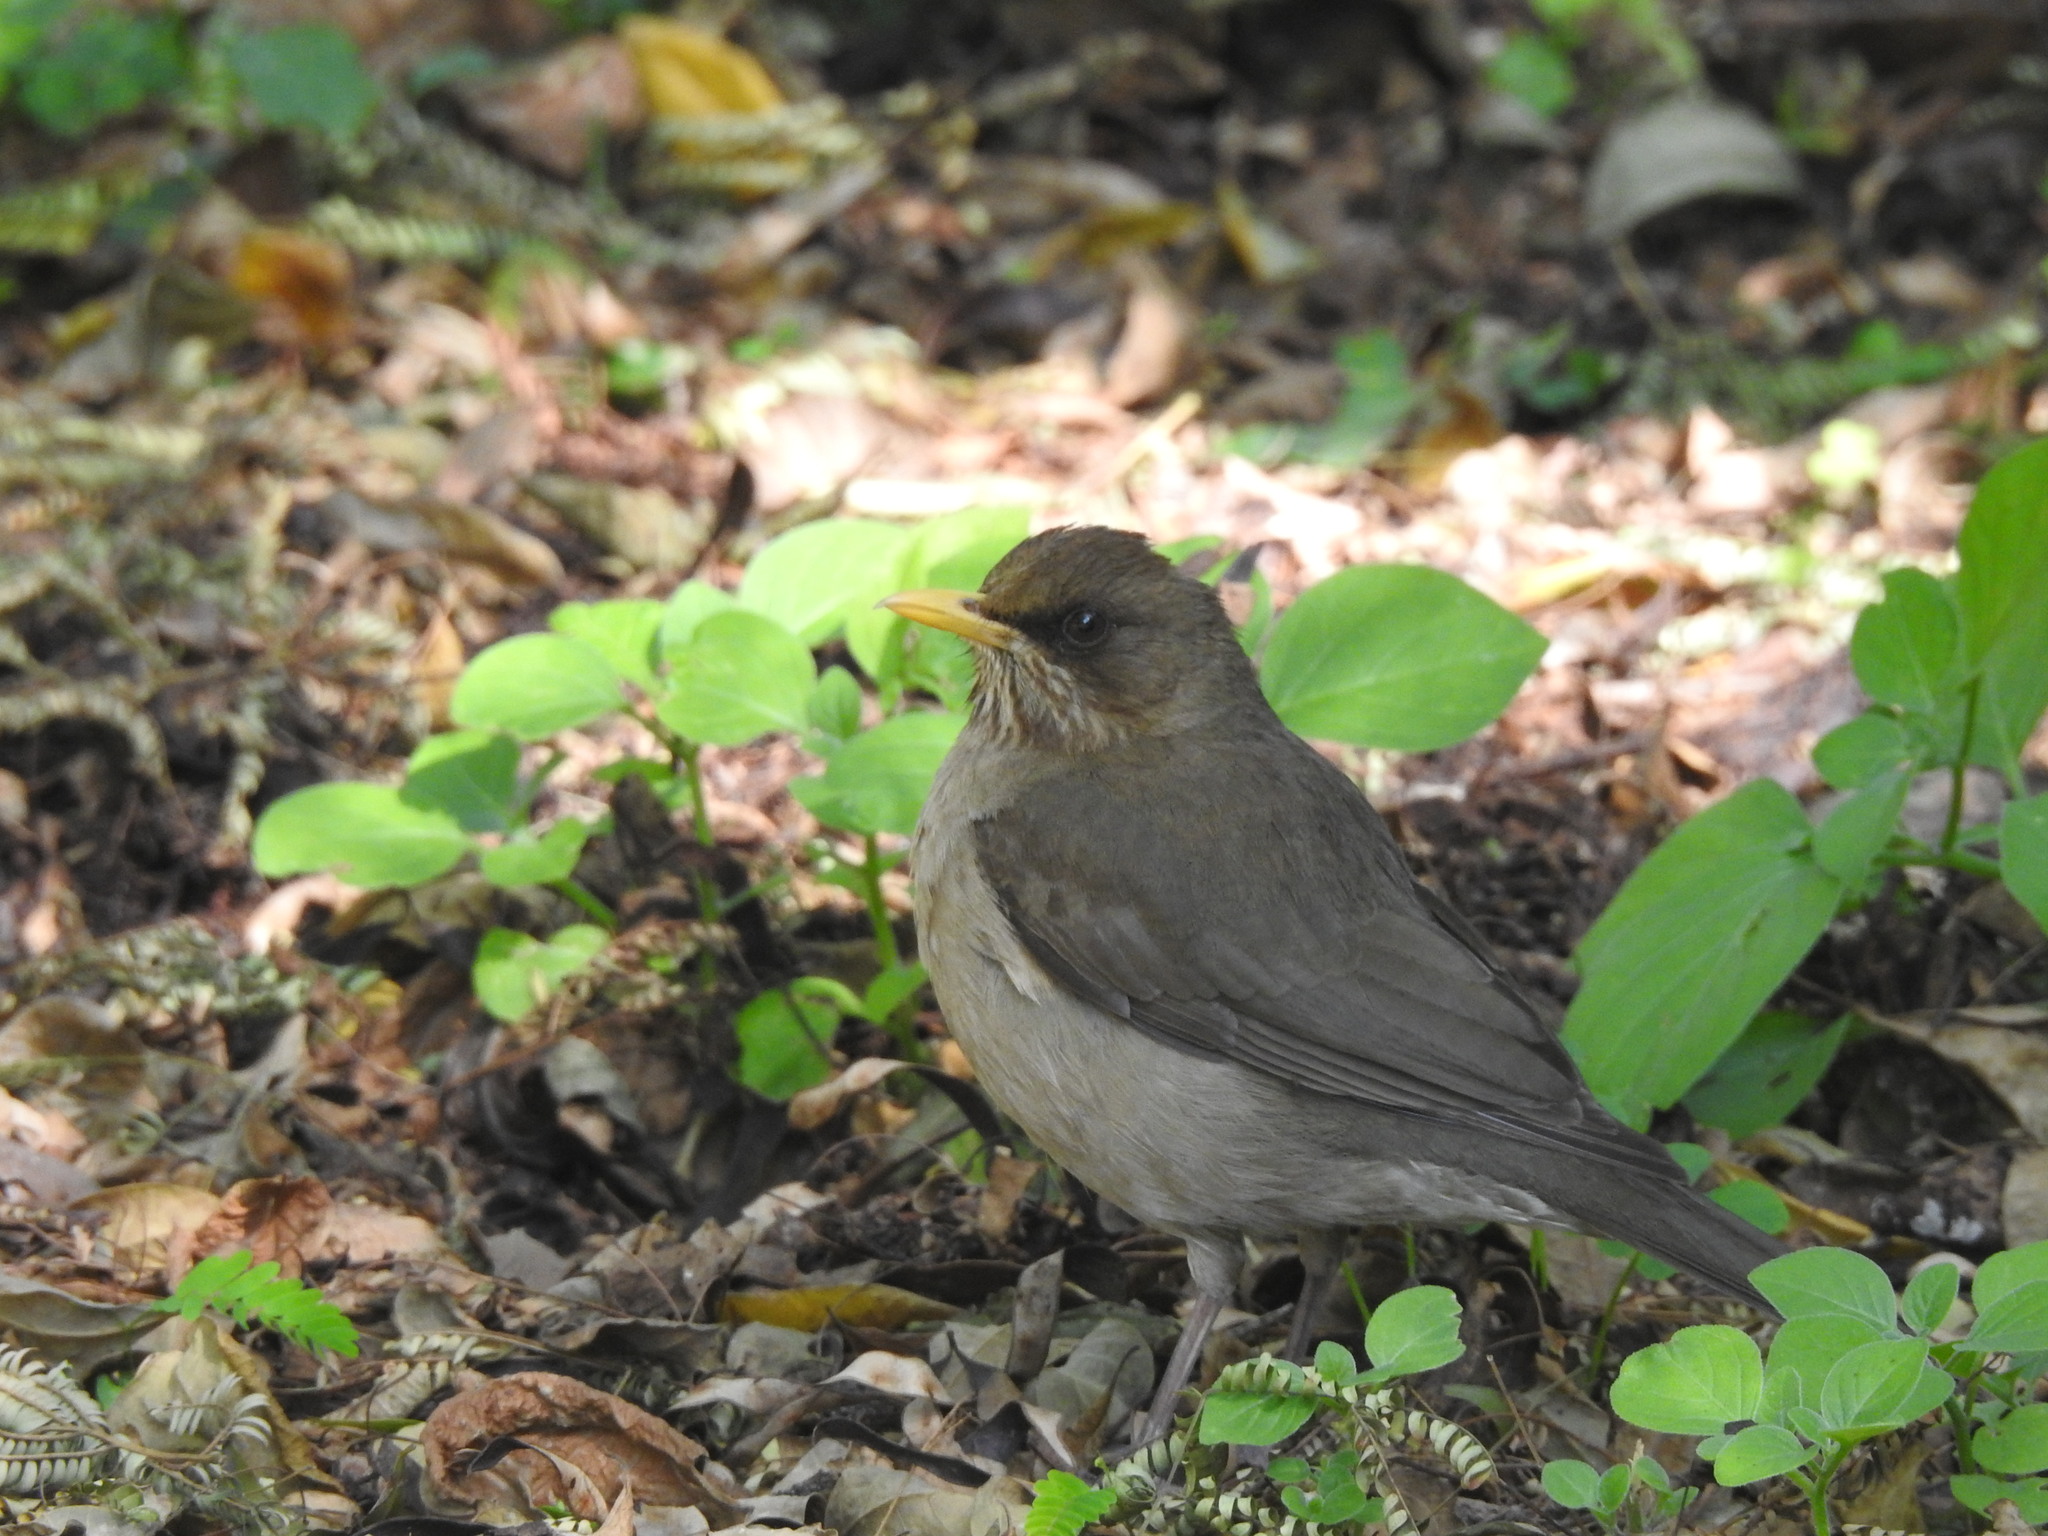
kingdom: Animalia
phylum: Chordata
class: Aves
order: Passeriformes
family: Turdidae
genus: Turdus
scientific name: Turdus amaurochalinus
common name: Creamy-bellied thrush
